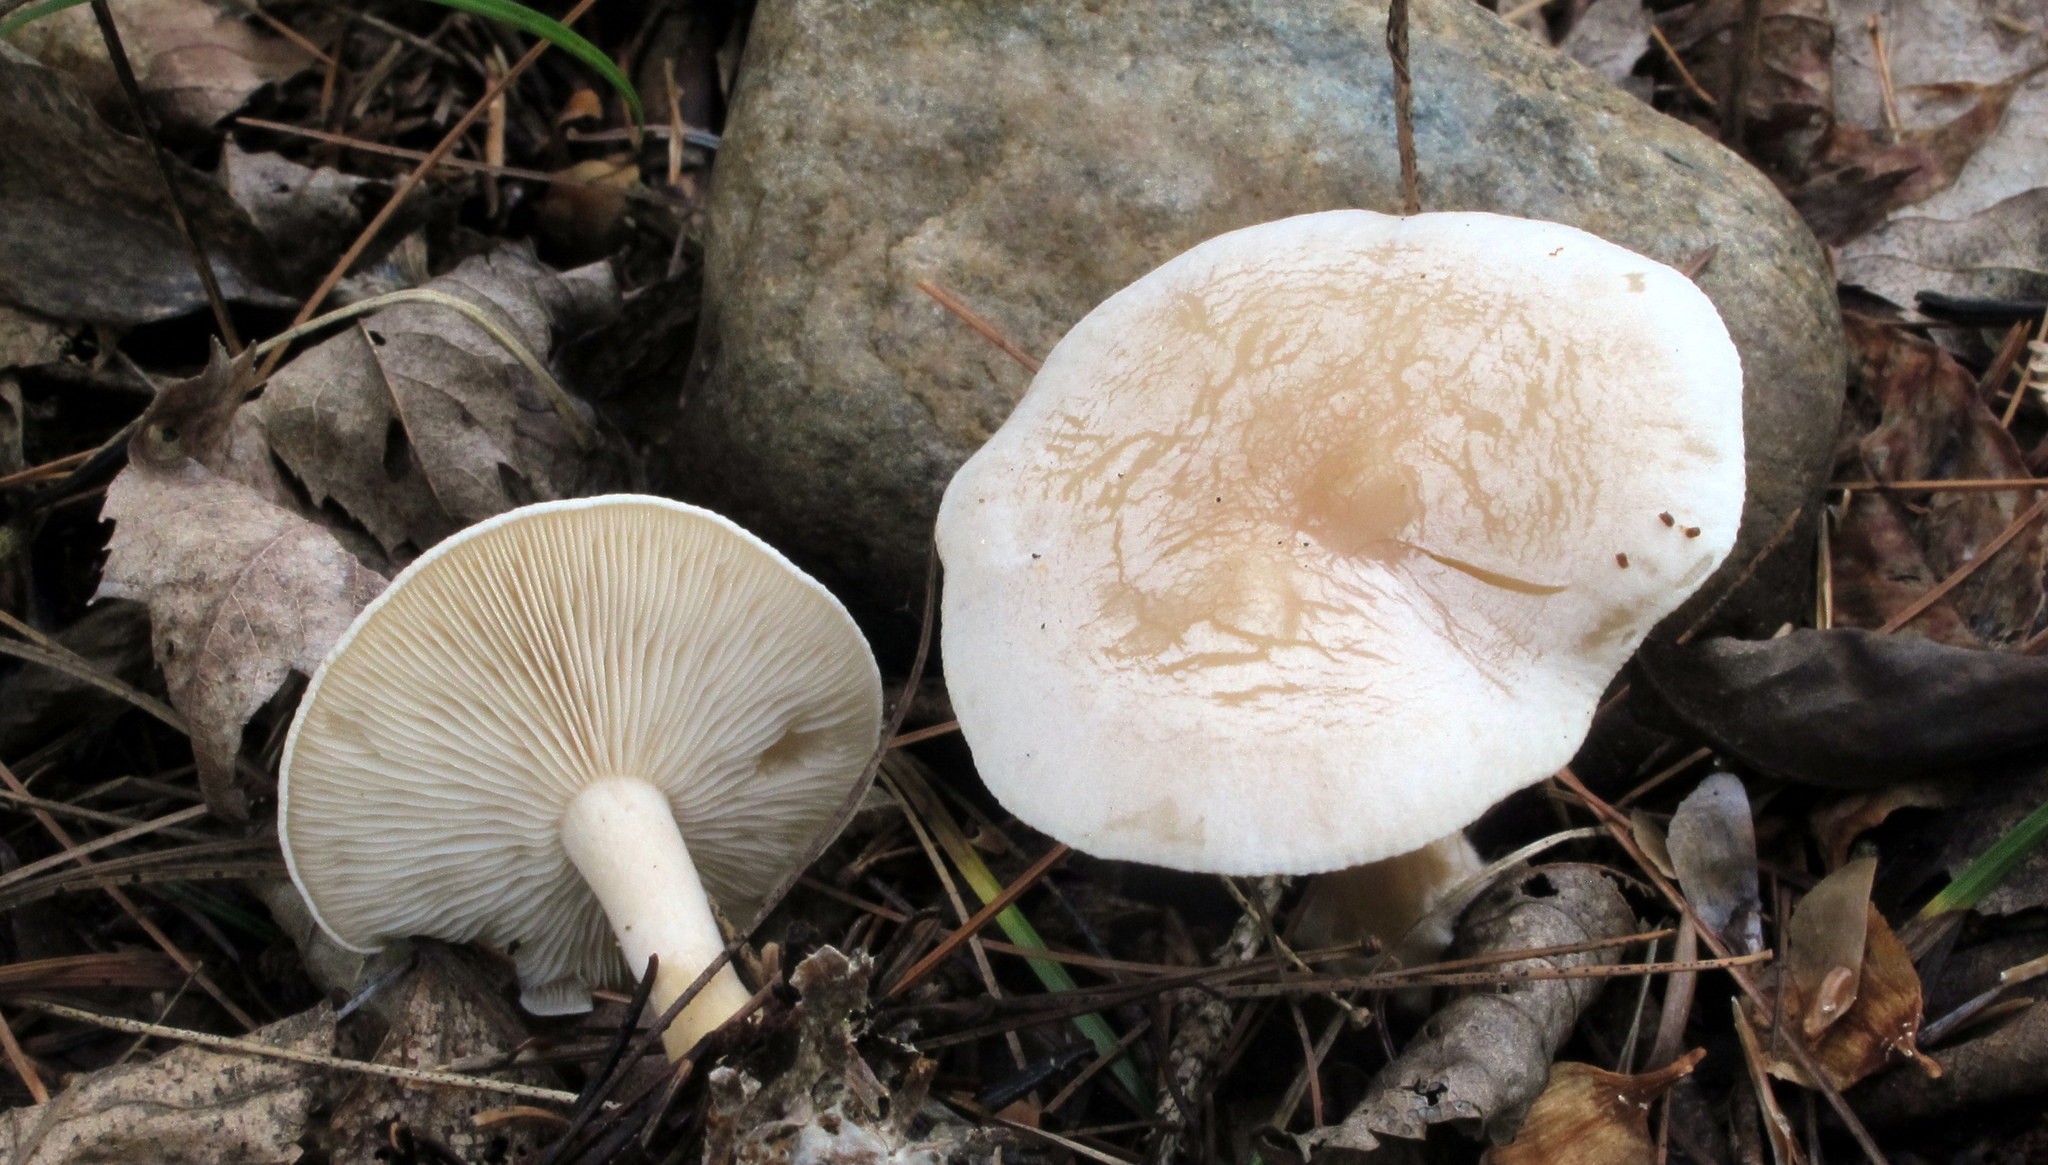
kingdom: Fungi
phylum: Basidiomycota
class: Agaricomycetes
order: Agaricales
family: Tricholomataceae
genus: Lulesia
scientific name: Lulesia
